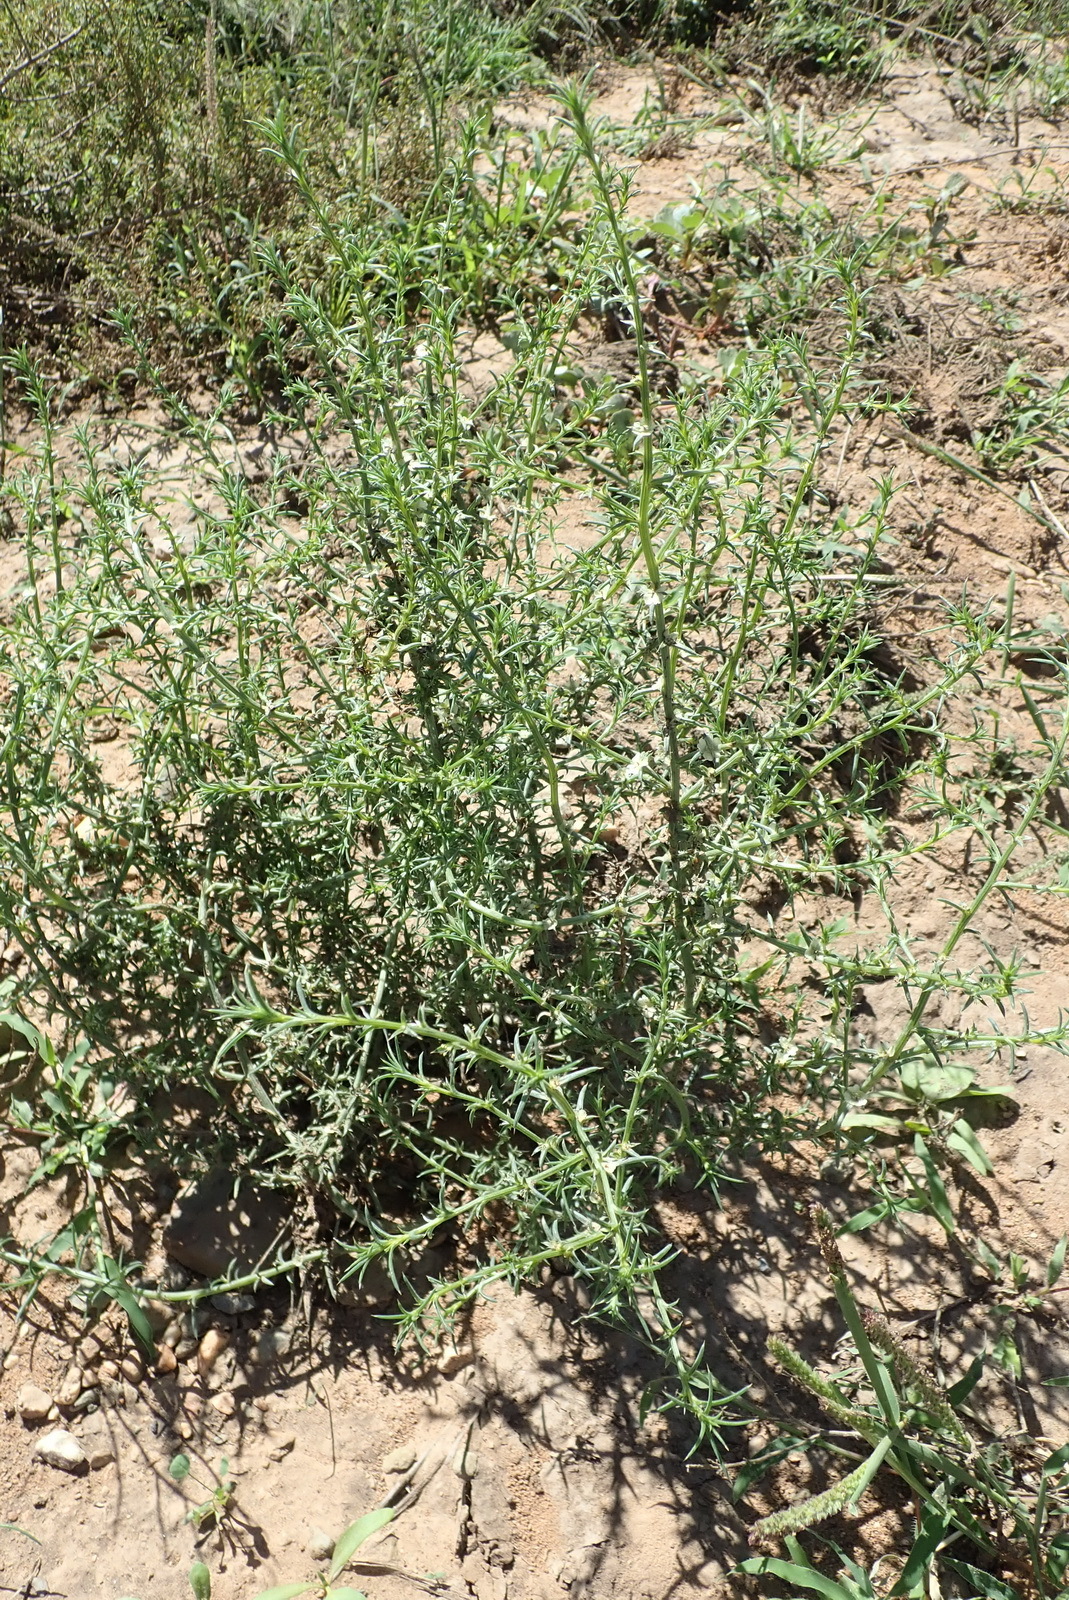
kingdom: Plantae
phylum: Tracheophyta
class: Magnoliopsida
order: Caryophyllales
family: Amaranthaceae
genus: Salsola
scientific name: Salsola kali
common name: Saltwort
